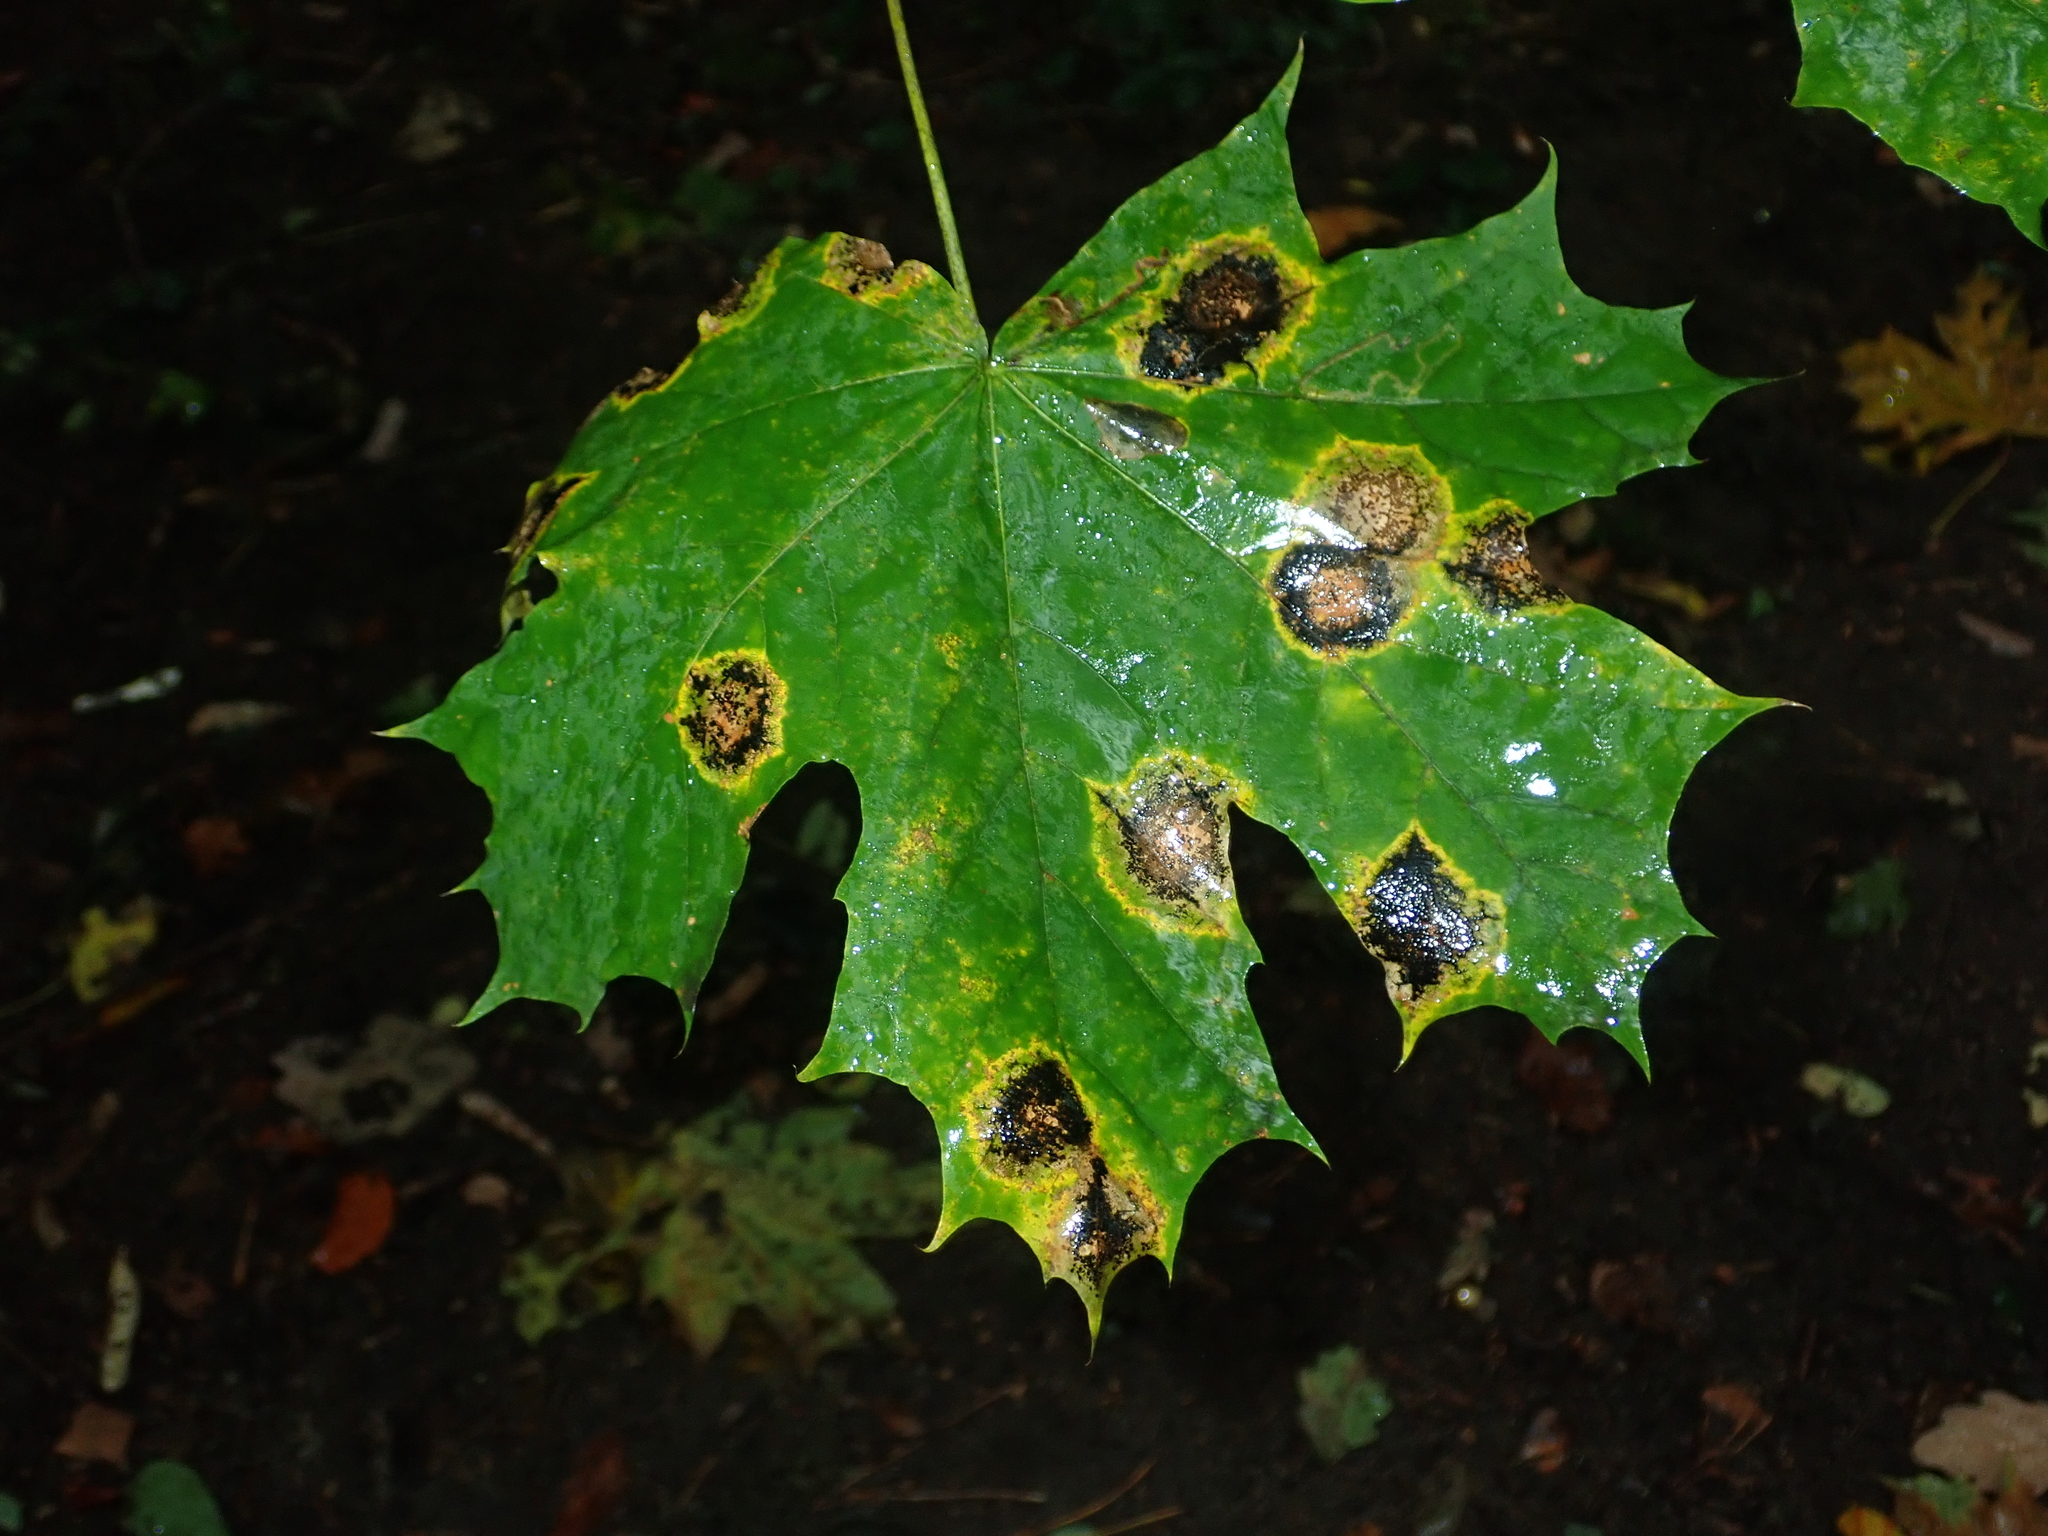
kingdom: Fungi
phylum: Ascomycota
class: Leotiomycetes
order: Rhytismatales
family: Rhytismataceae
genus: Rhytisma
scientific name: Rhytisma acerinum
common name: European tar spot
